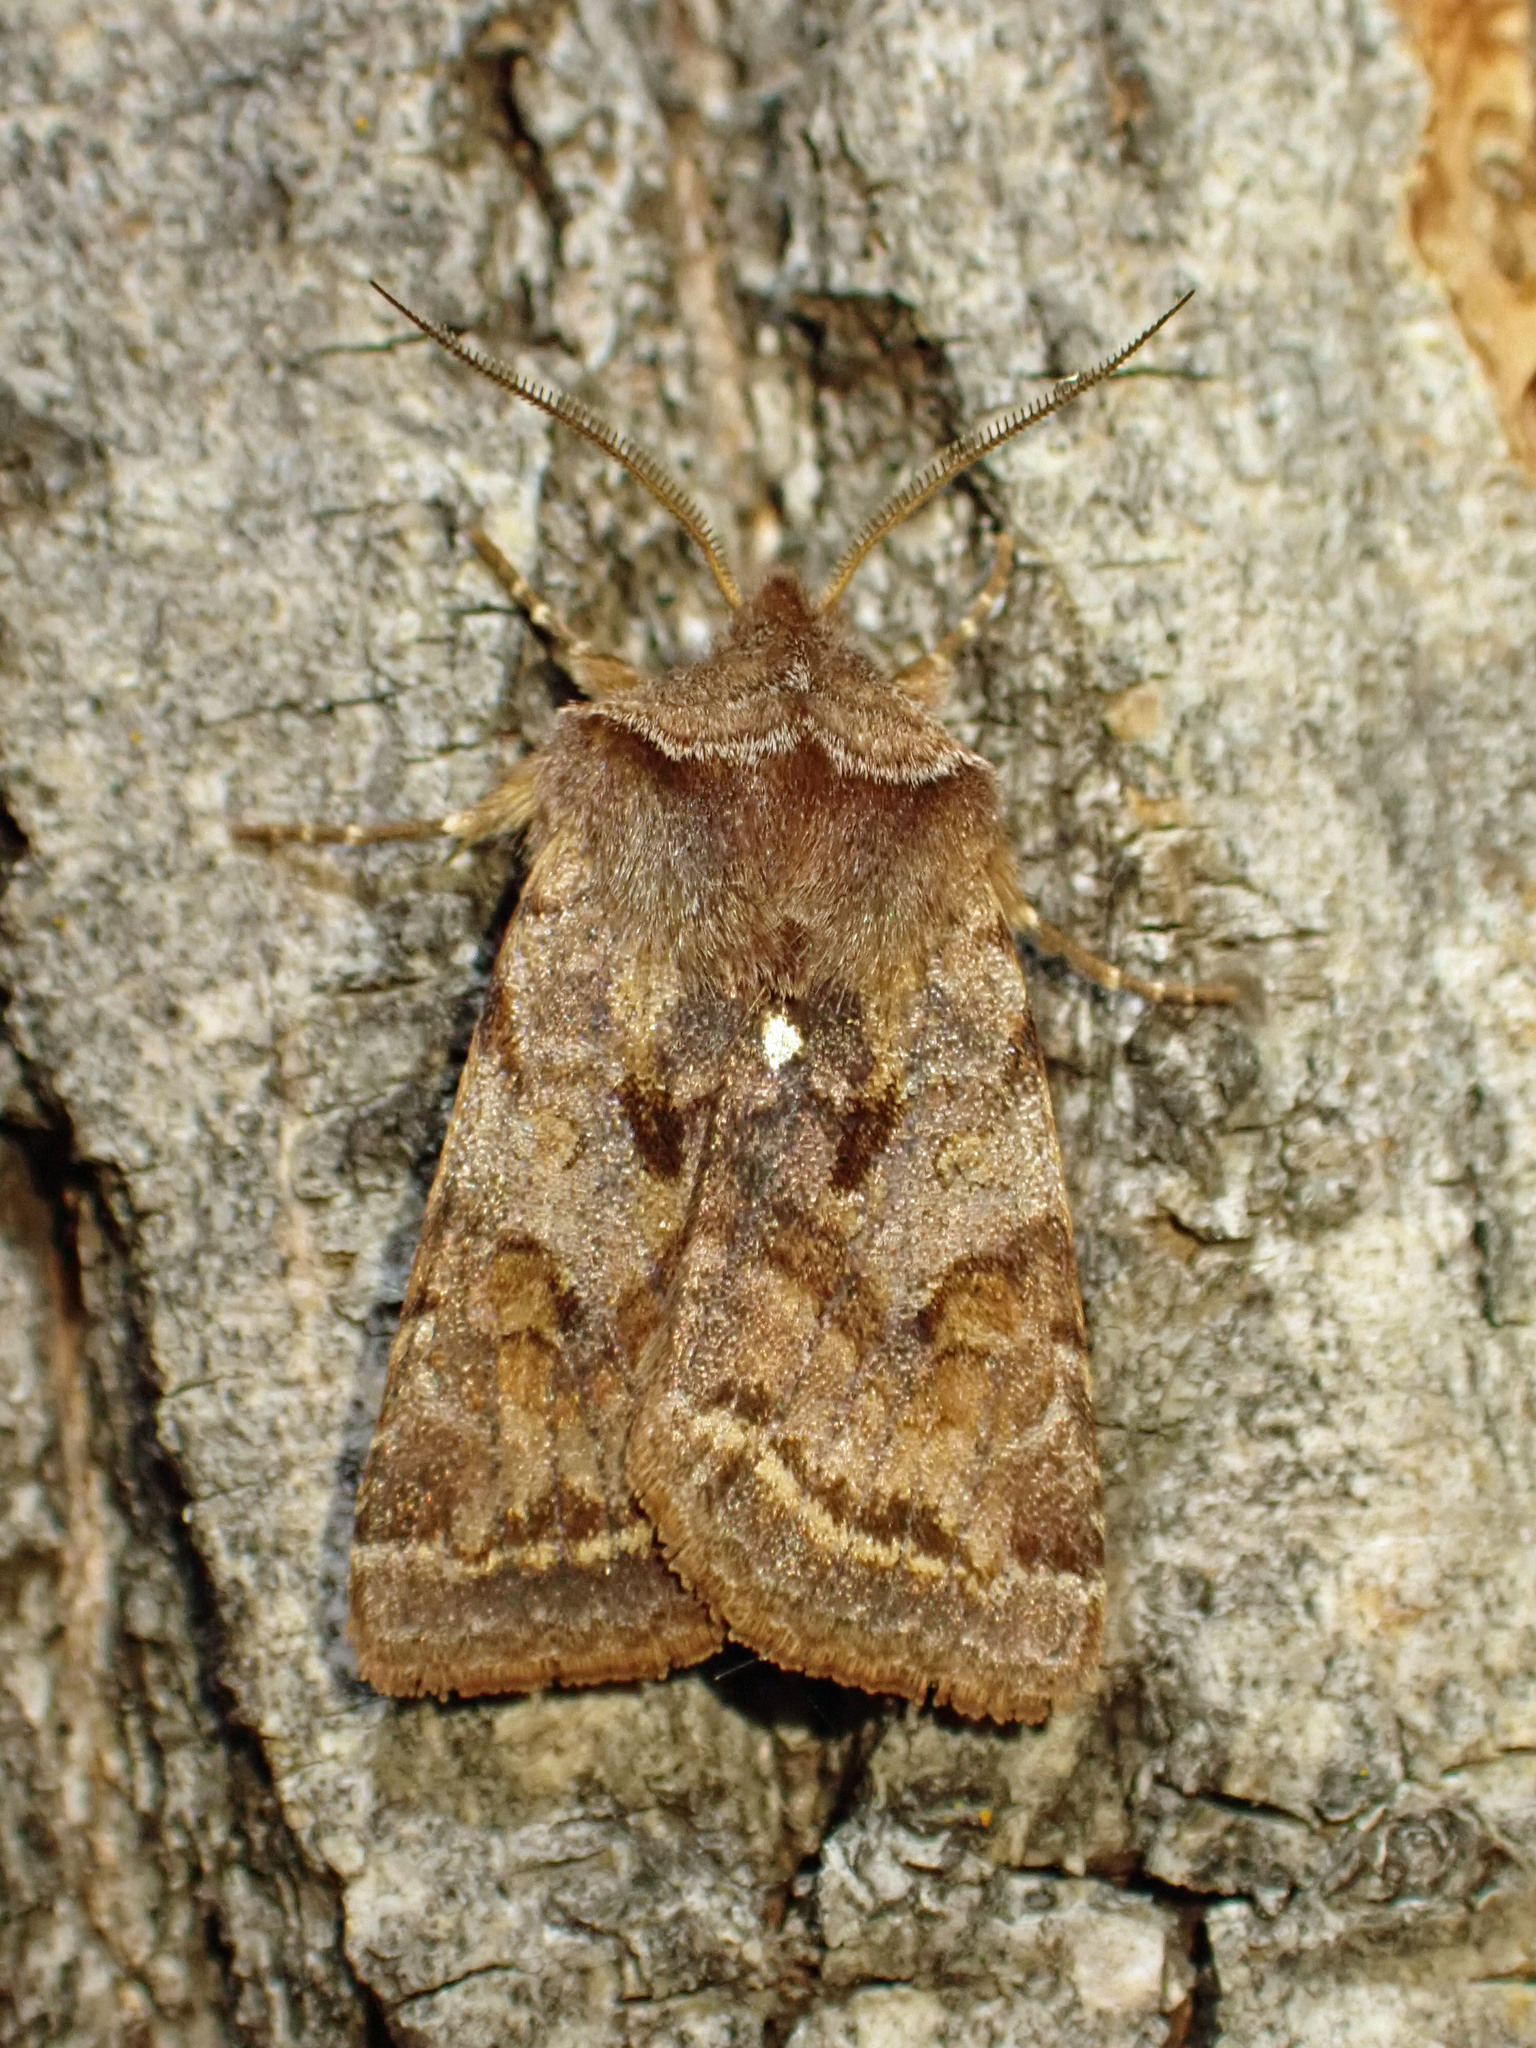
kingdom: Animalia
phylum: Arthropoda
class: Insecta
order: Lepidoptera
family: Noctuidae
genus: Cerastis
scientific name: Cerastis salicarum
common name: Willow dart
